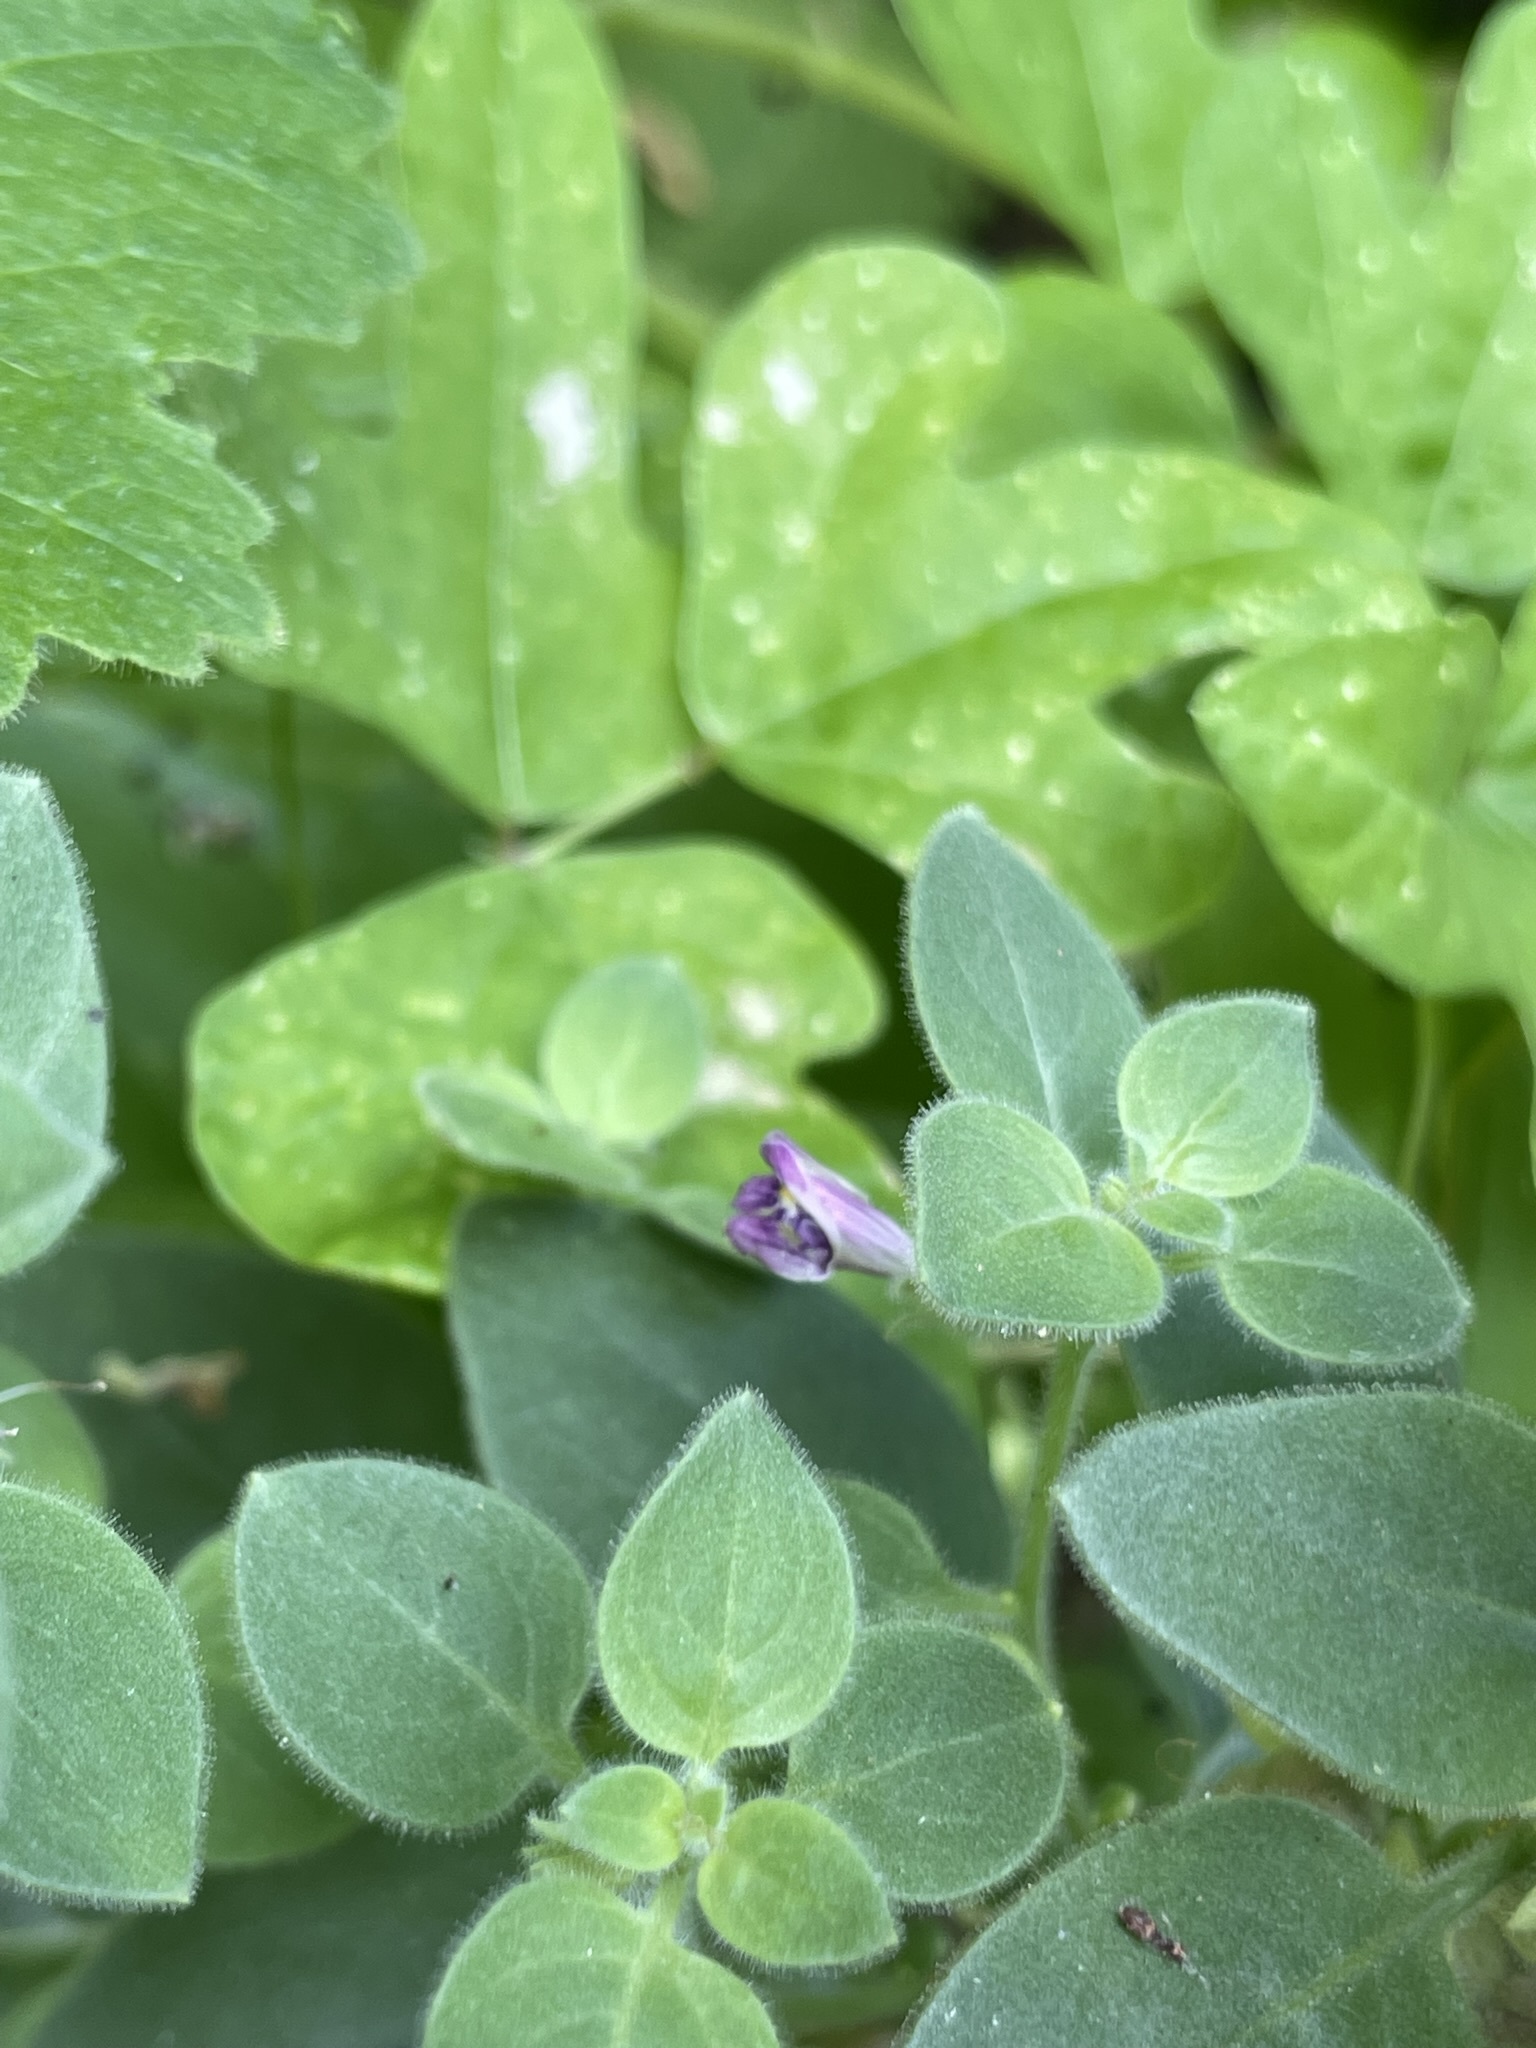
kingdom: Plantae
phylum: Tracheophyta
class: Magnoliopsida
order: Lamiales
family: Plantaginaceae
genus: Pseudorontium
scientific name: Pseudorontium cyathiferum
